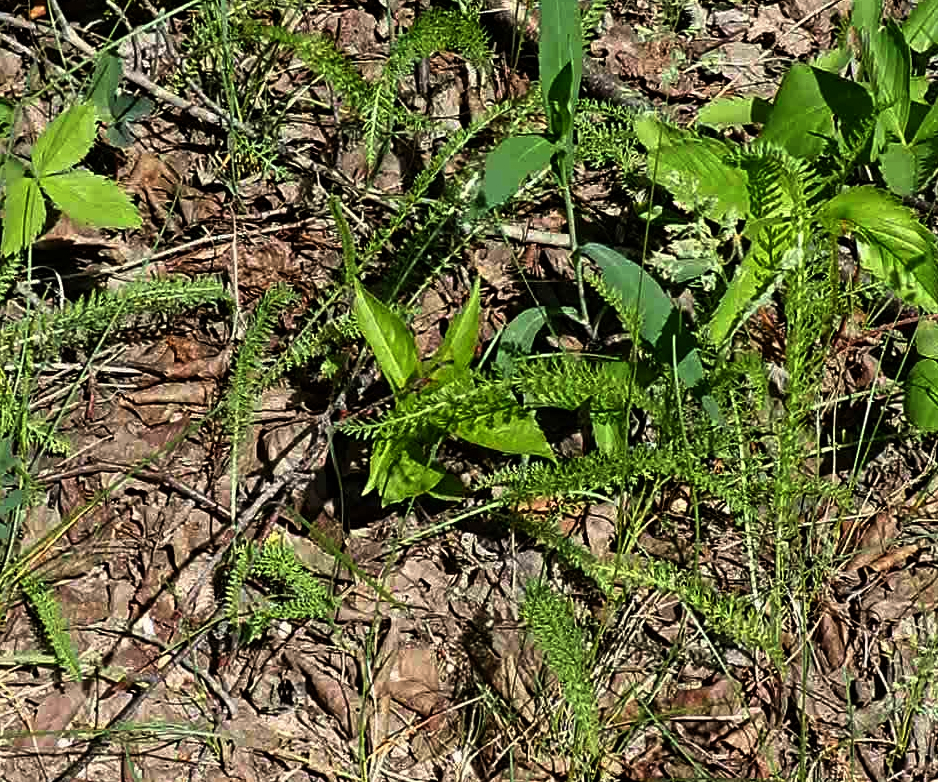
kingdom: Plantae
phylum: Tracheophyta
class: Magnoliopsida
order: Asterales
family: Asteraceae
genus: Achillea
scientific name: Achillea millefolium
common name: Yarrow
